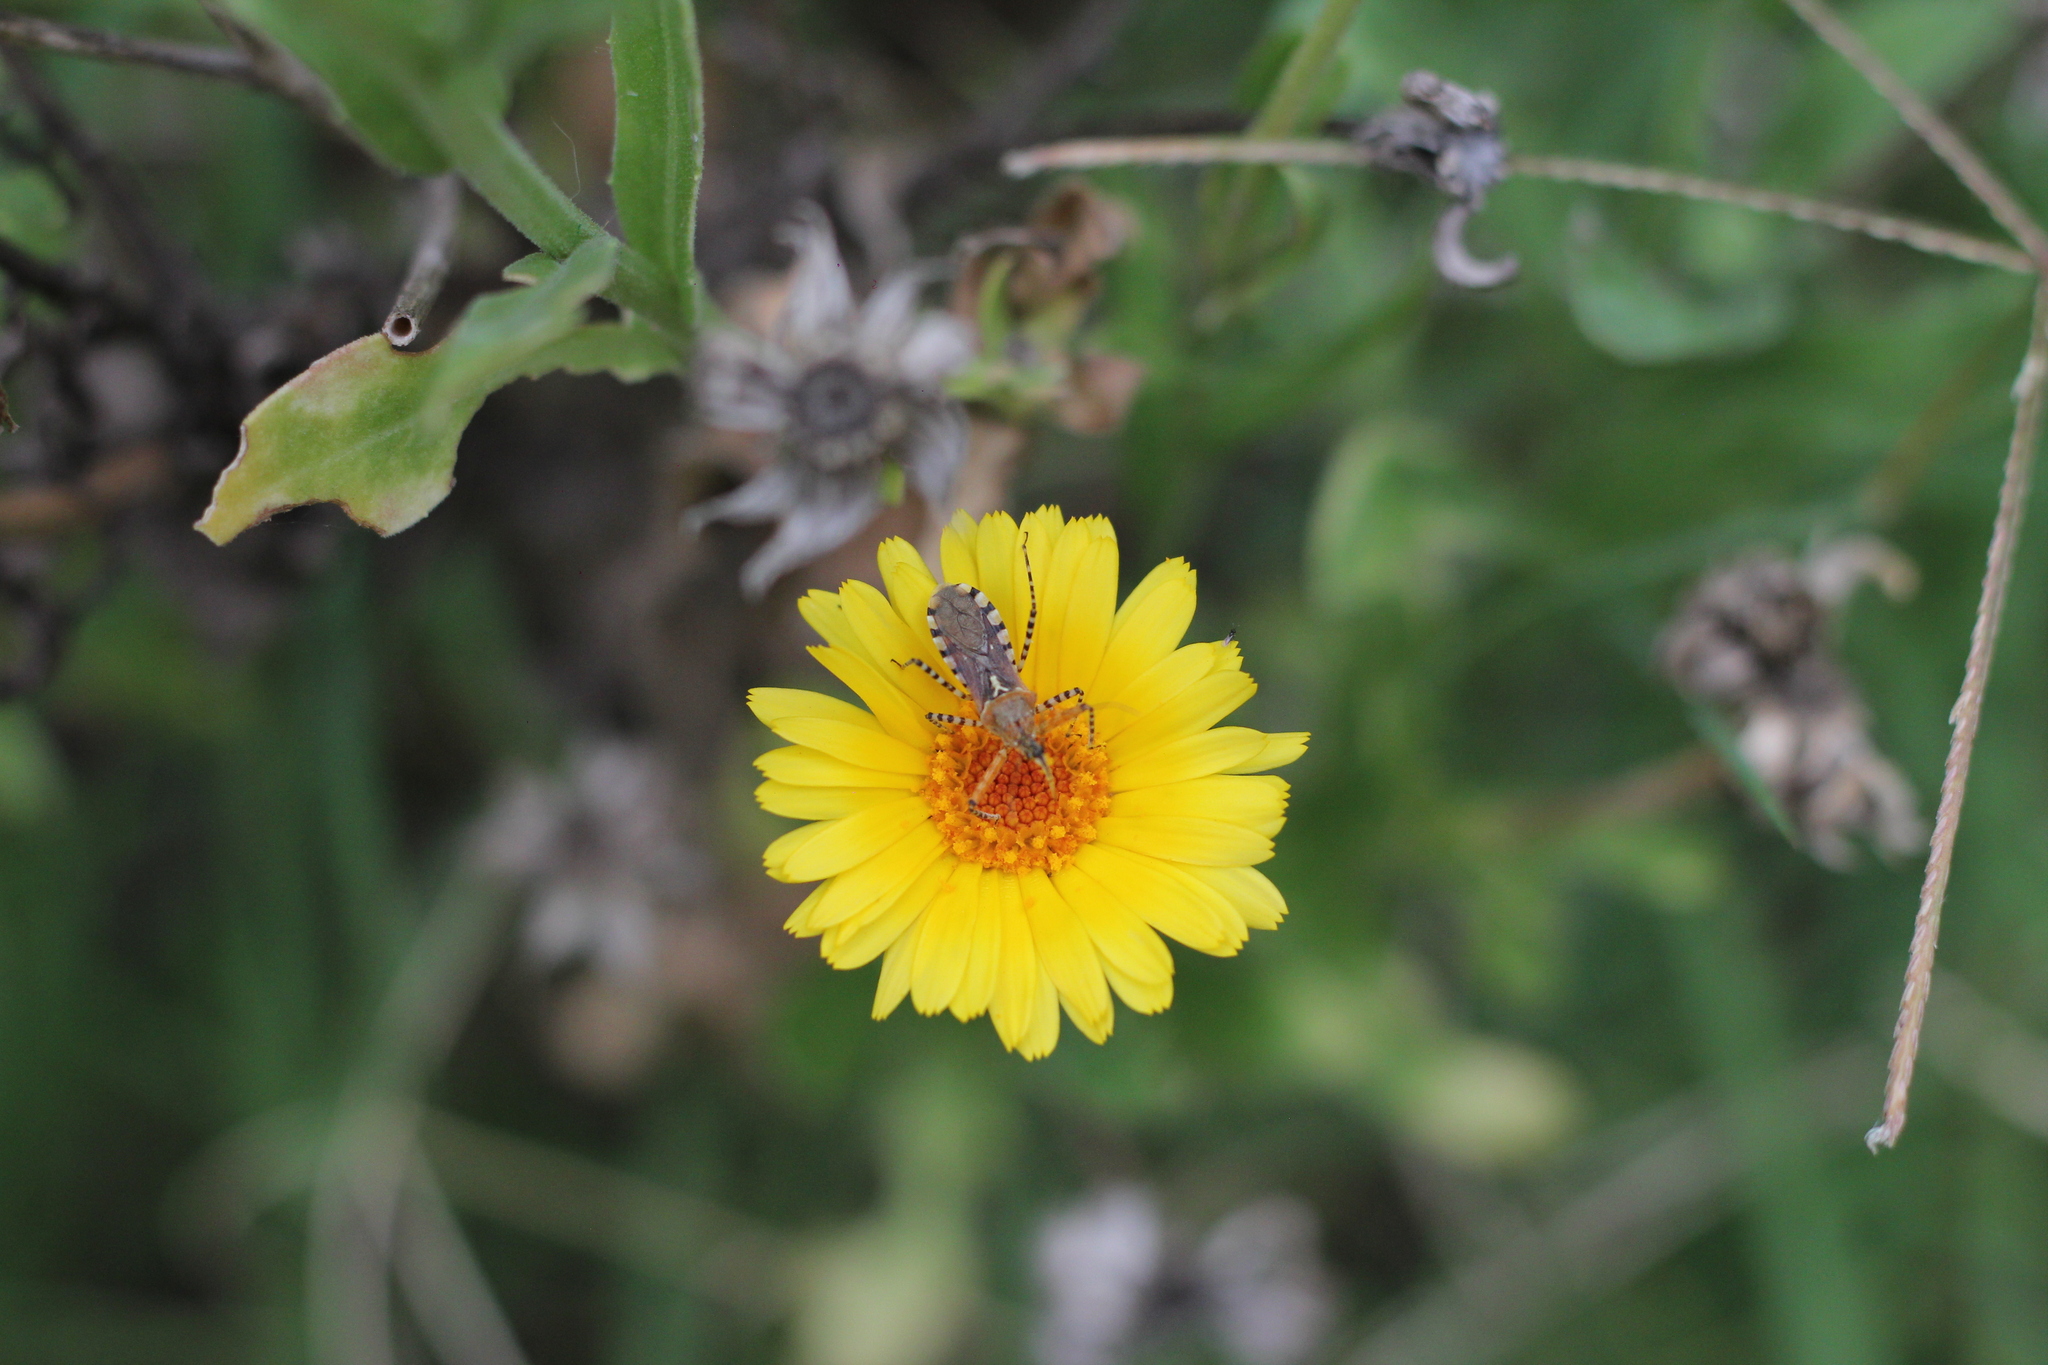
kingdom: Animalia
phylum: Arthropoda
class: Insecta
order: Hemiptera
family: Reduviidae
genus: Cosmoclopius
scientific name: Cosmoclopius nigroannulatus
